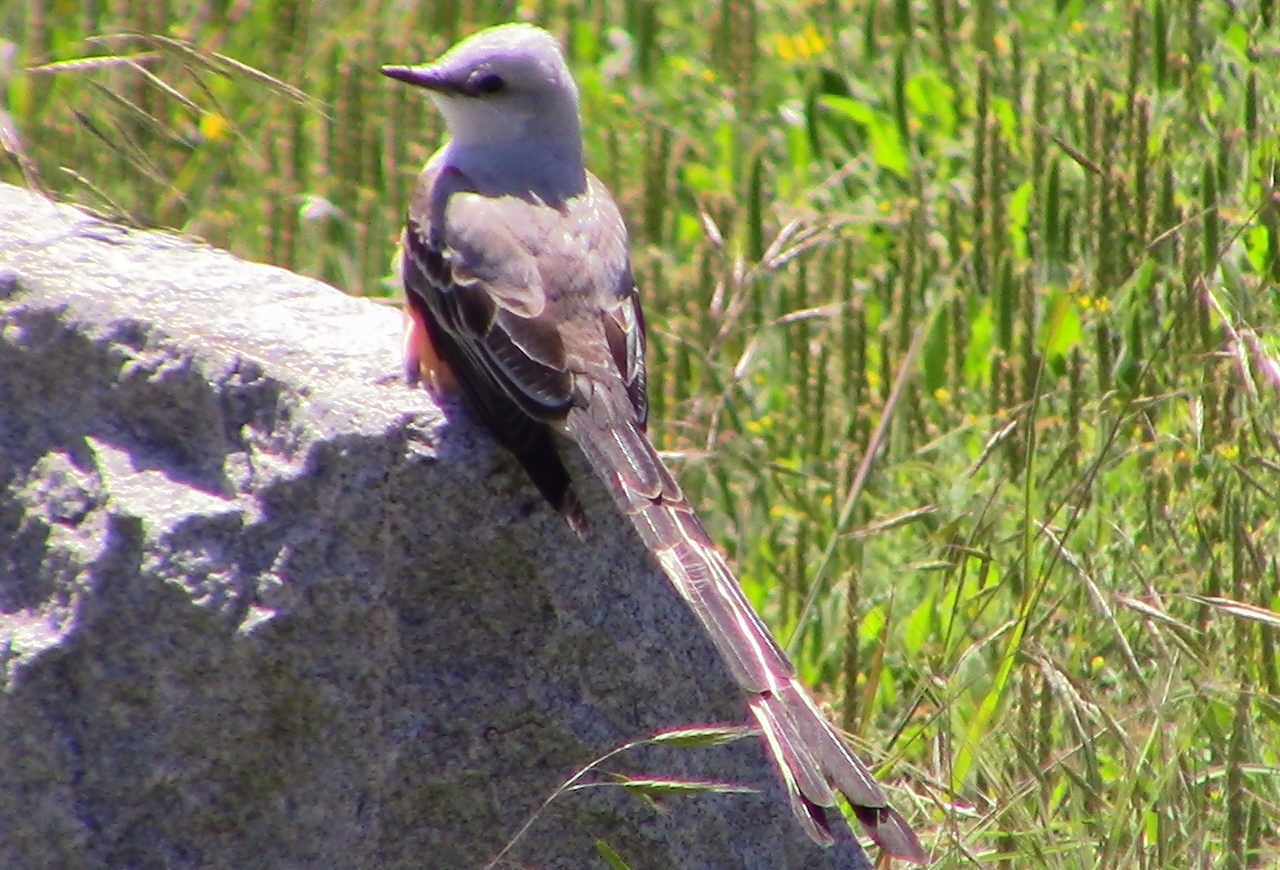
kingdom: Animalia
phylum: Chordata
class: Aves
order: Passeriformes
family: Tyrannidae
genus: Tyrannus
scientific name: Tyrannus forficatus
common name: Scissor-tailed flycatcher
